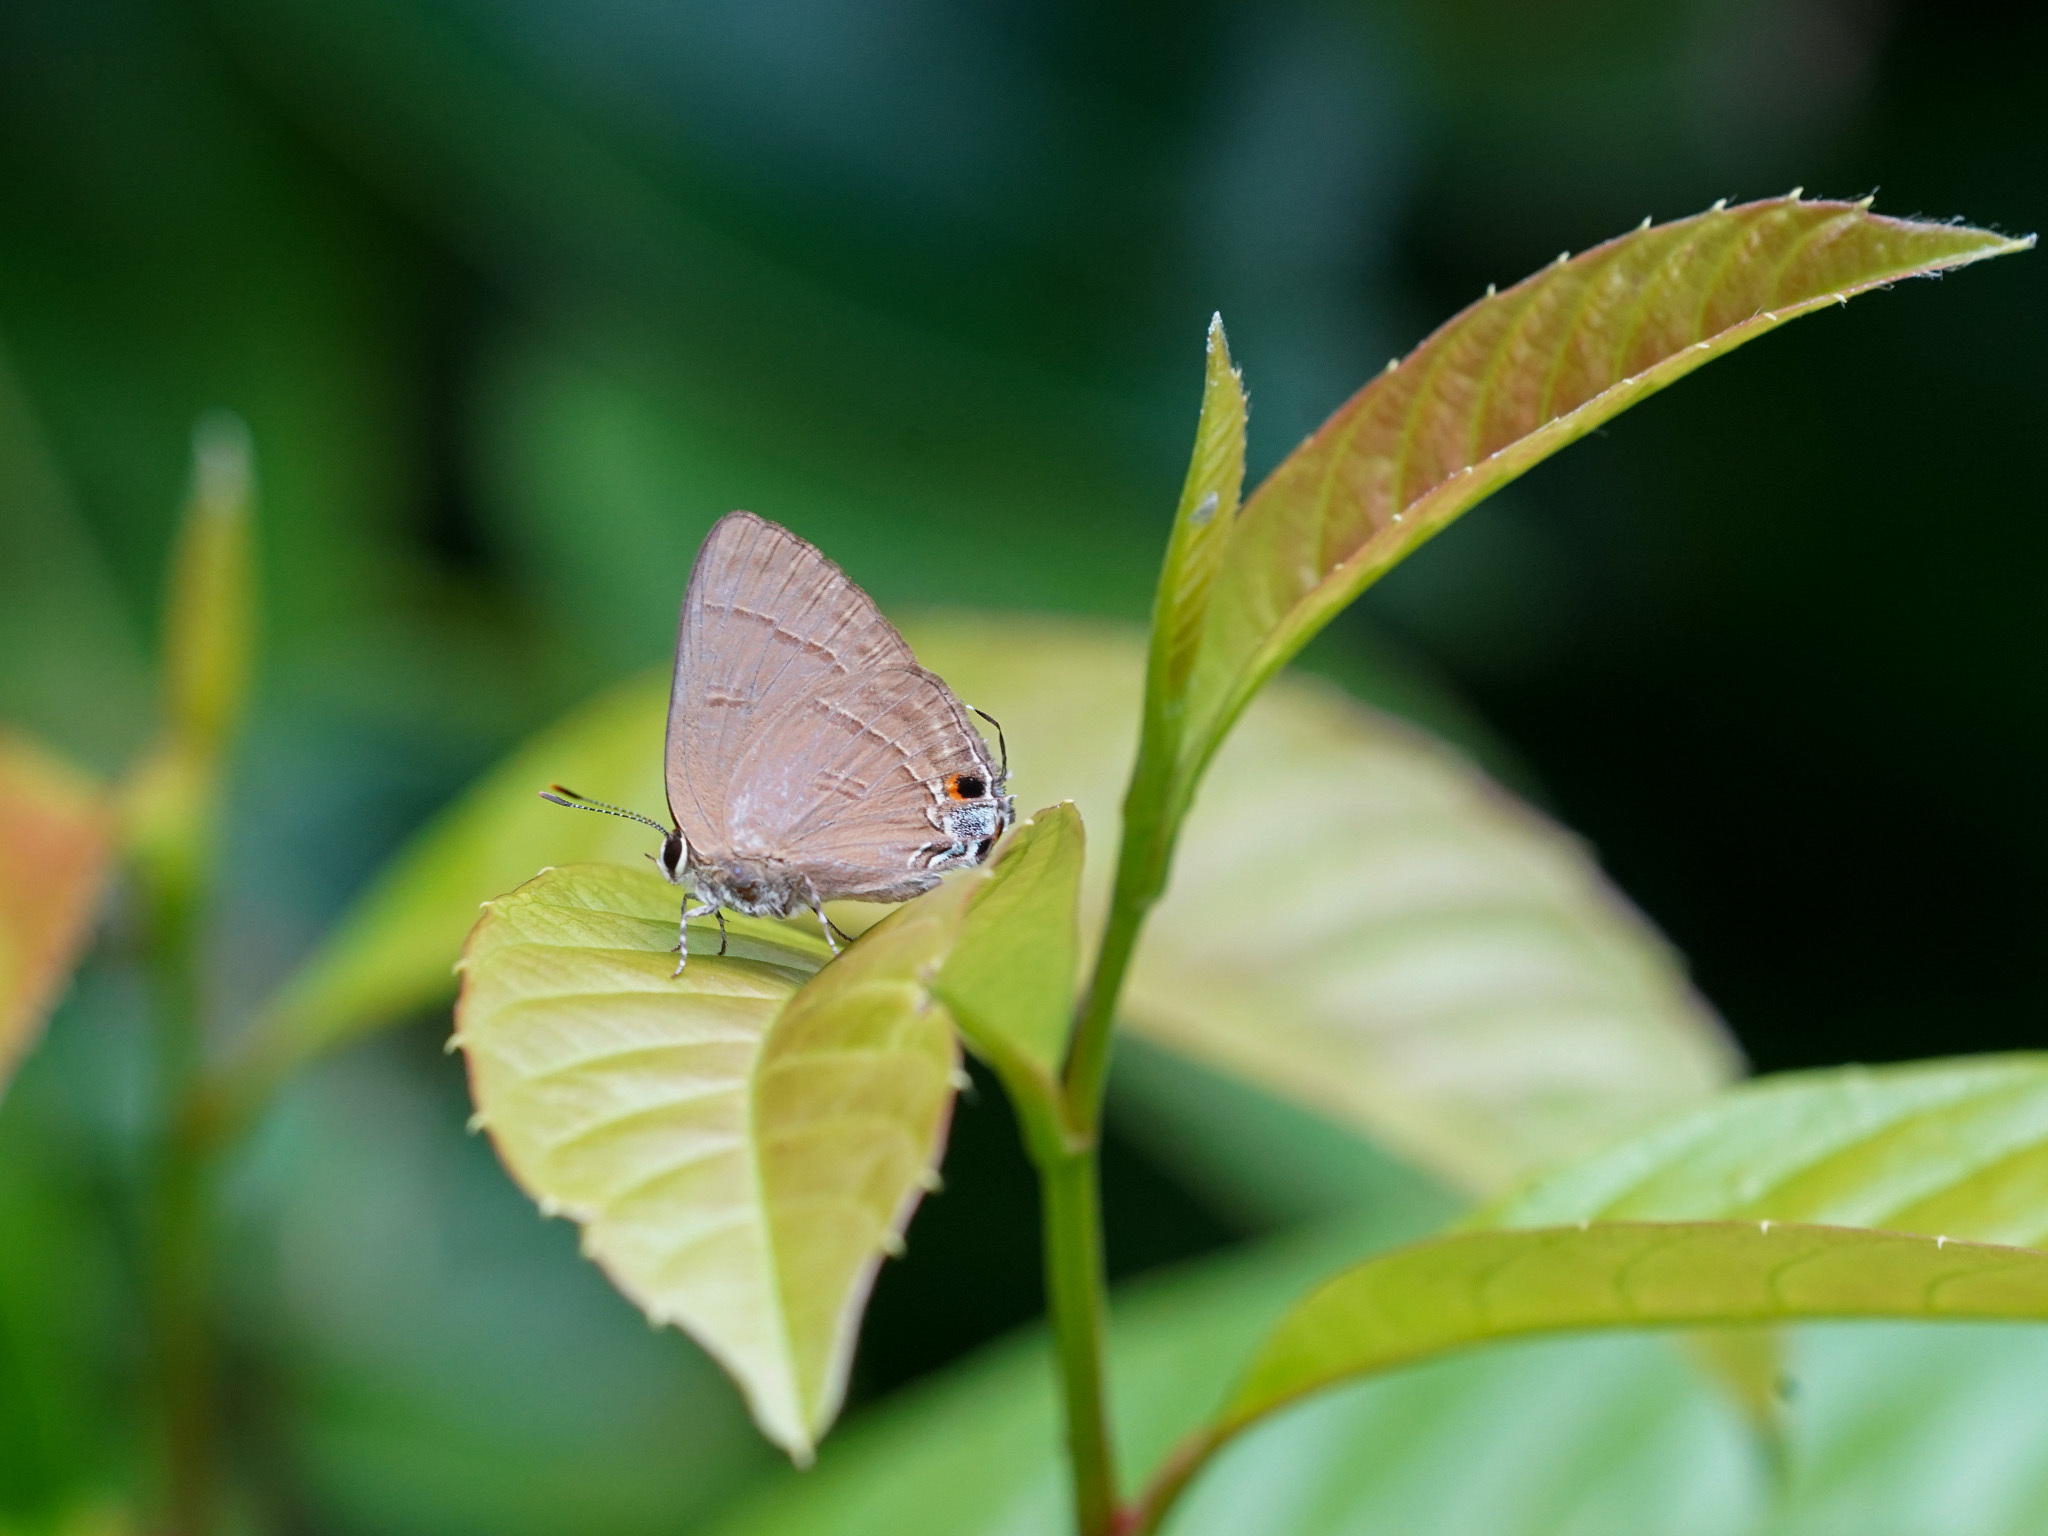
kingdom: Animalia
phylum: Arthropoda
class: Insecta
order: Lepidoptera
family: Lycaenidae
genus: Rapala
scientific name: Rapala manea
